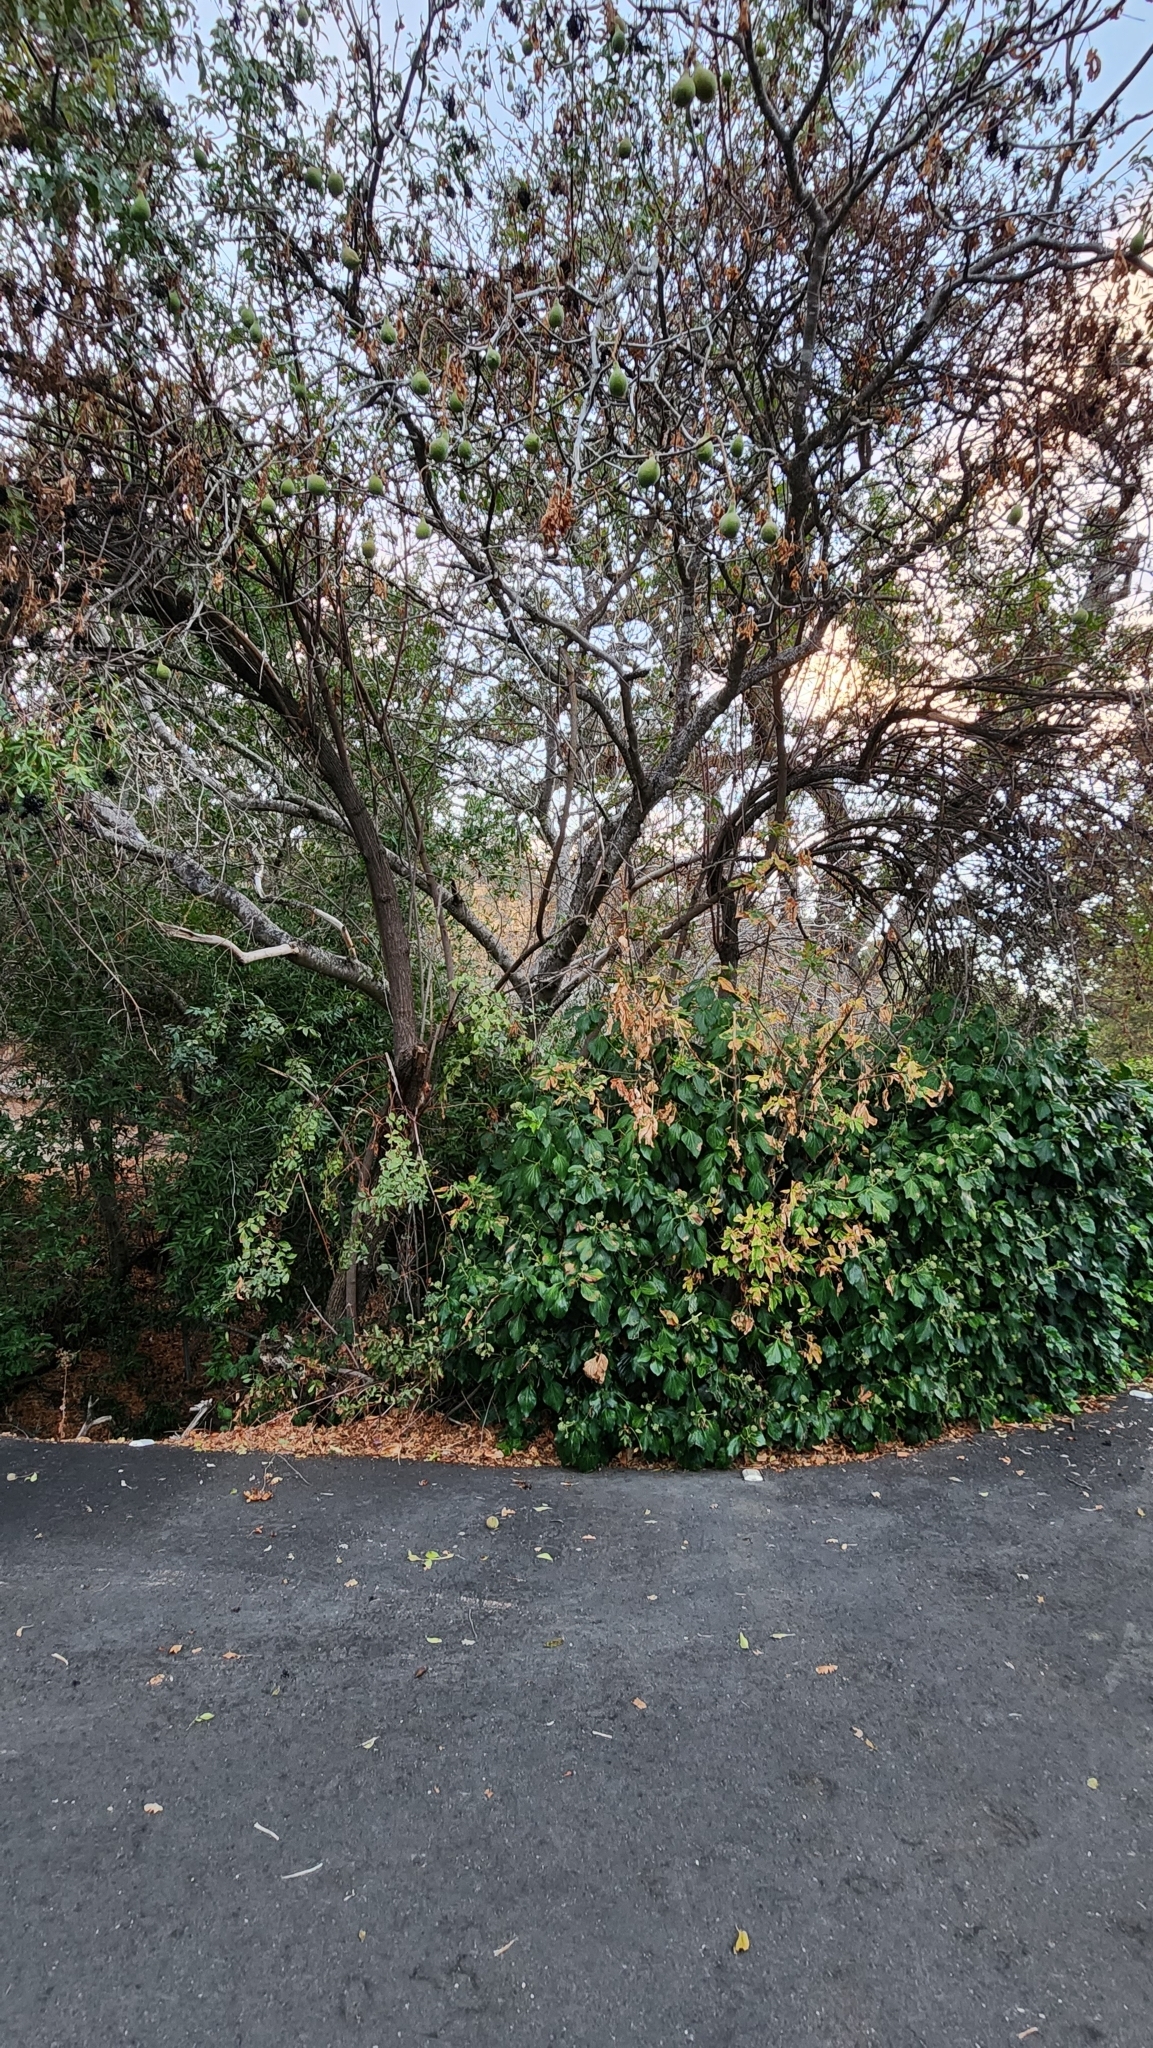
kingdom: Plantae
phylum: Tracheophyta
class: Magnoliopsida
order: Sapindales
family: Sapindaceae
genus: Aesculus
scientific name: Aesculus californica
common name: California buckeye
